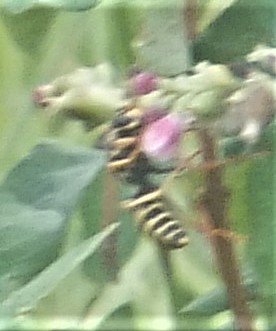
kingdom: Animalia
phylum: Arthropoda
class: Insecta
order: Hymenoptera
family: Eumenidae
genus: Polistes
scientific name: Polistes dominula
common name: Paper wasp
